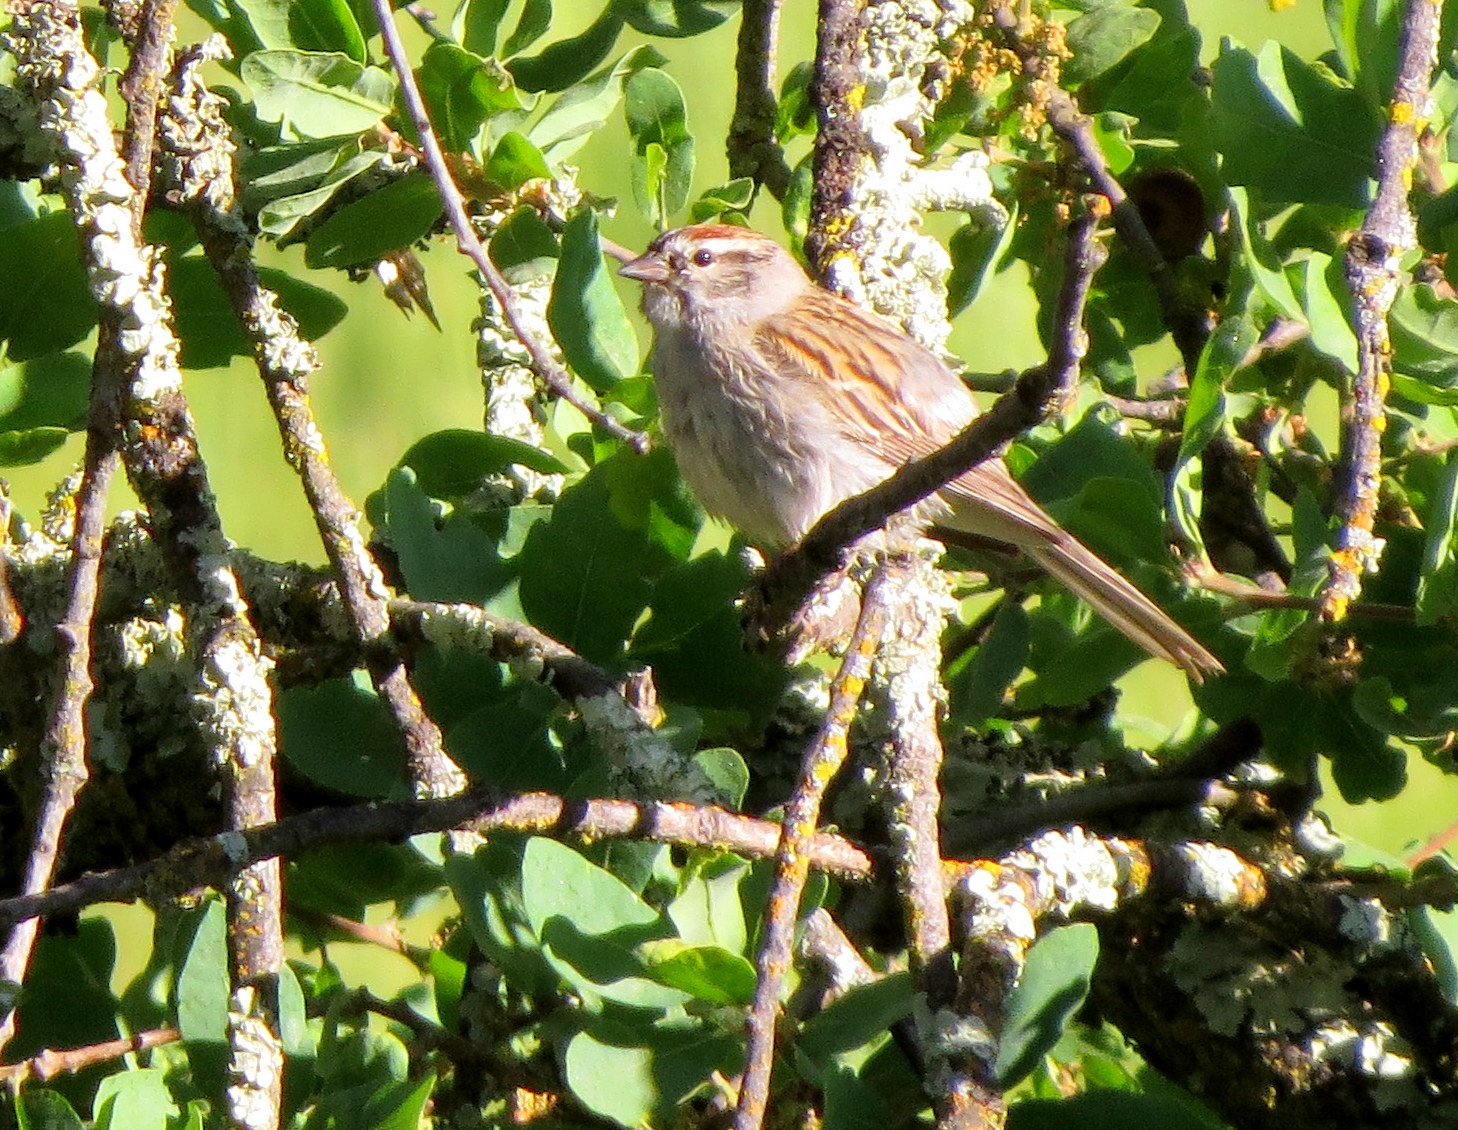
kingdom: Animalia
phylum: Chordata
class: Aves
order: Passeriformes
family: Passerellidae
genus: Spizella
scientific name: Spizella passerina
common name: Chipping sparrow
